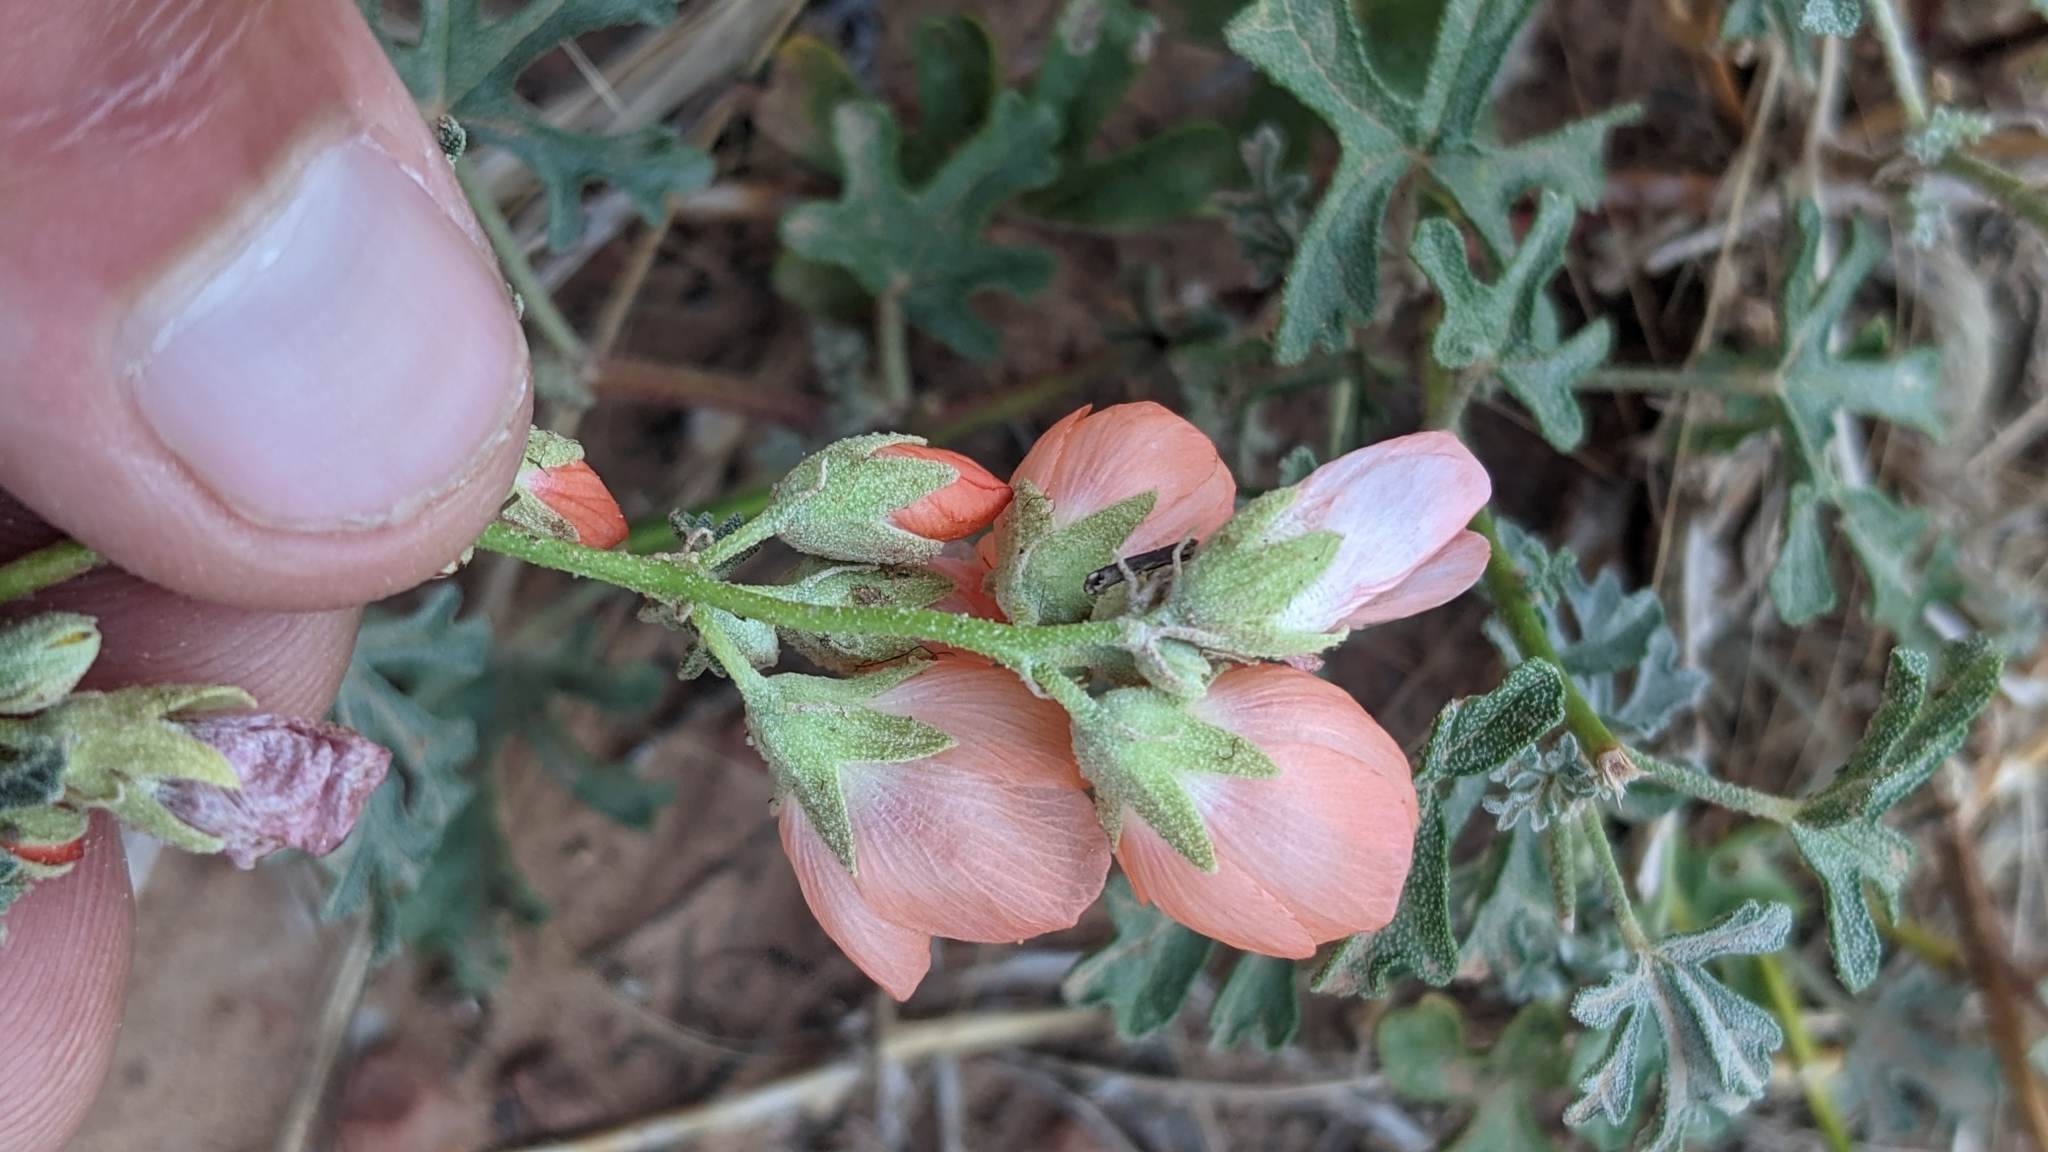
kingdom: Plantae
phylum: Tracheophyta
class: Magnoliopsida
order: Malvales
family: Malvaceae
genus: Sphaeralcea
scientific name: Sphaeralcea grossulariifolia
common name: Current-leaf globe-mallow
